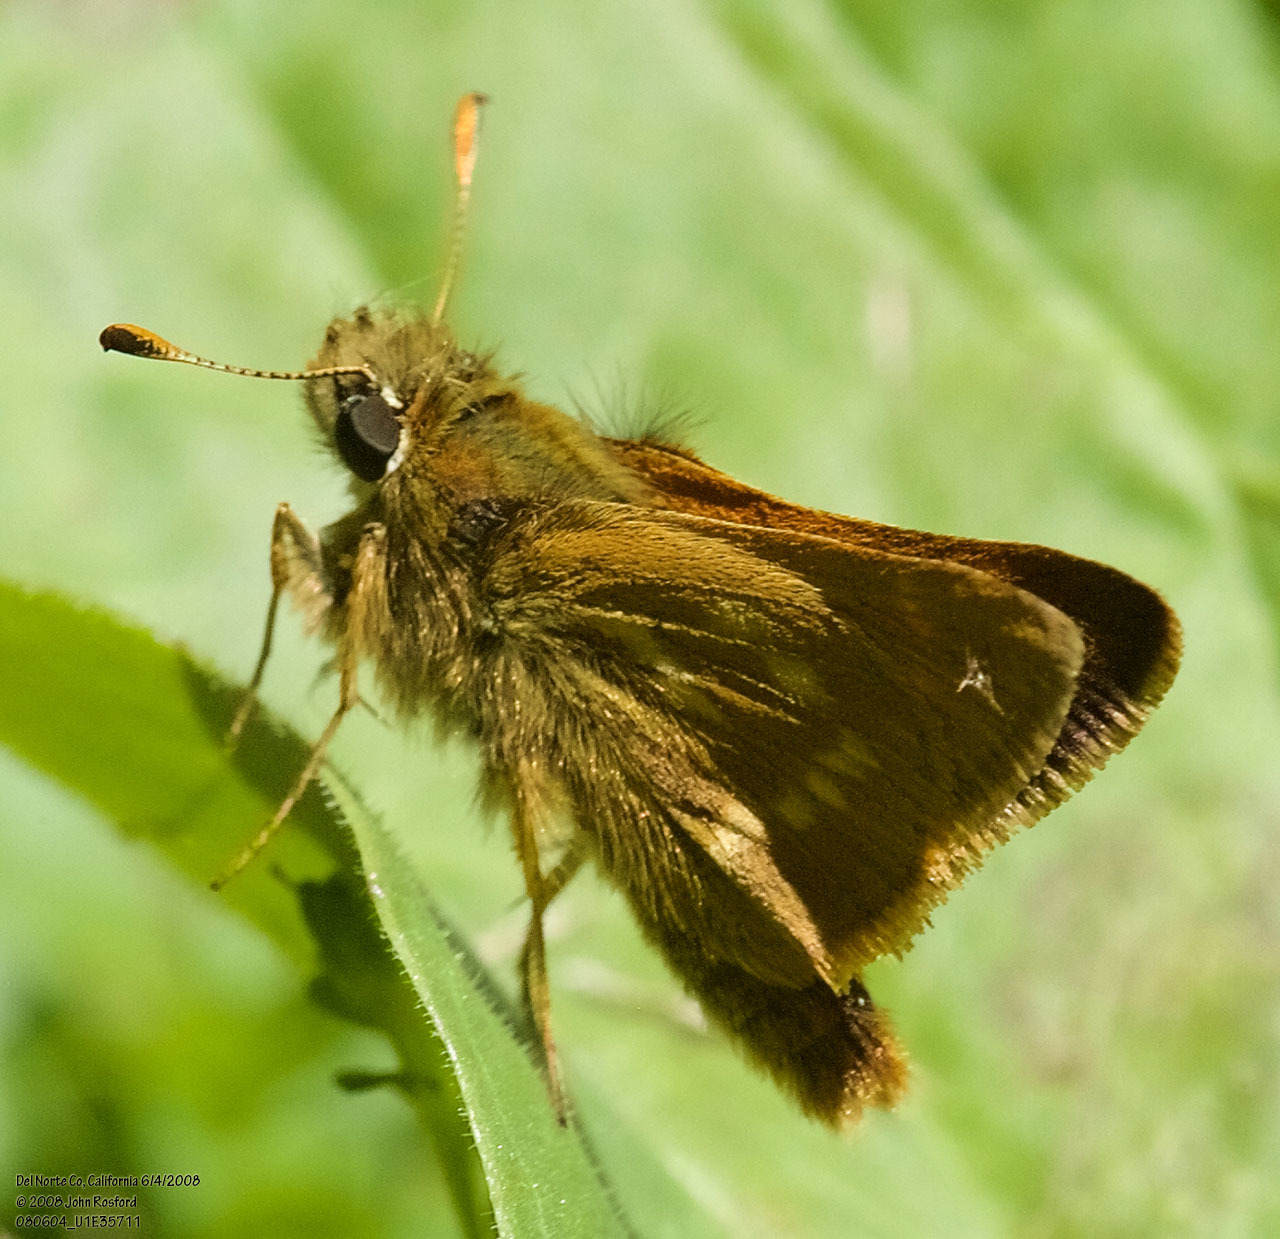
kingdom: Animalia
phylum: Arthropoda
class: Insecta
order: Lepidoptera
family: Hesperiidae
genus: Polites
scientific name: Polites mystic
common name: Long dash
